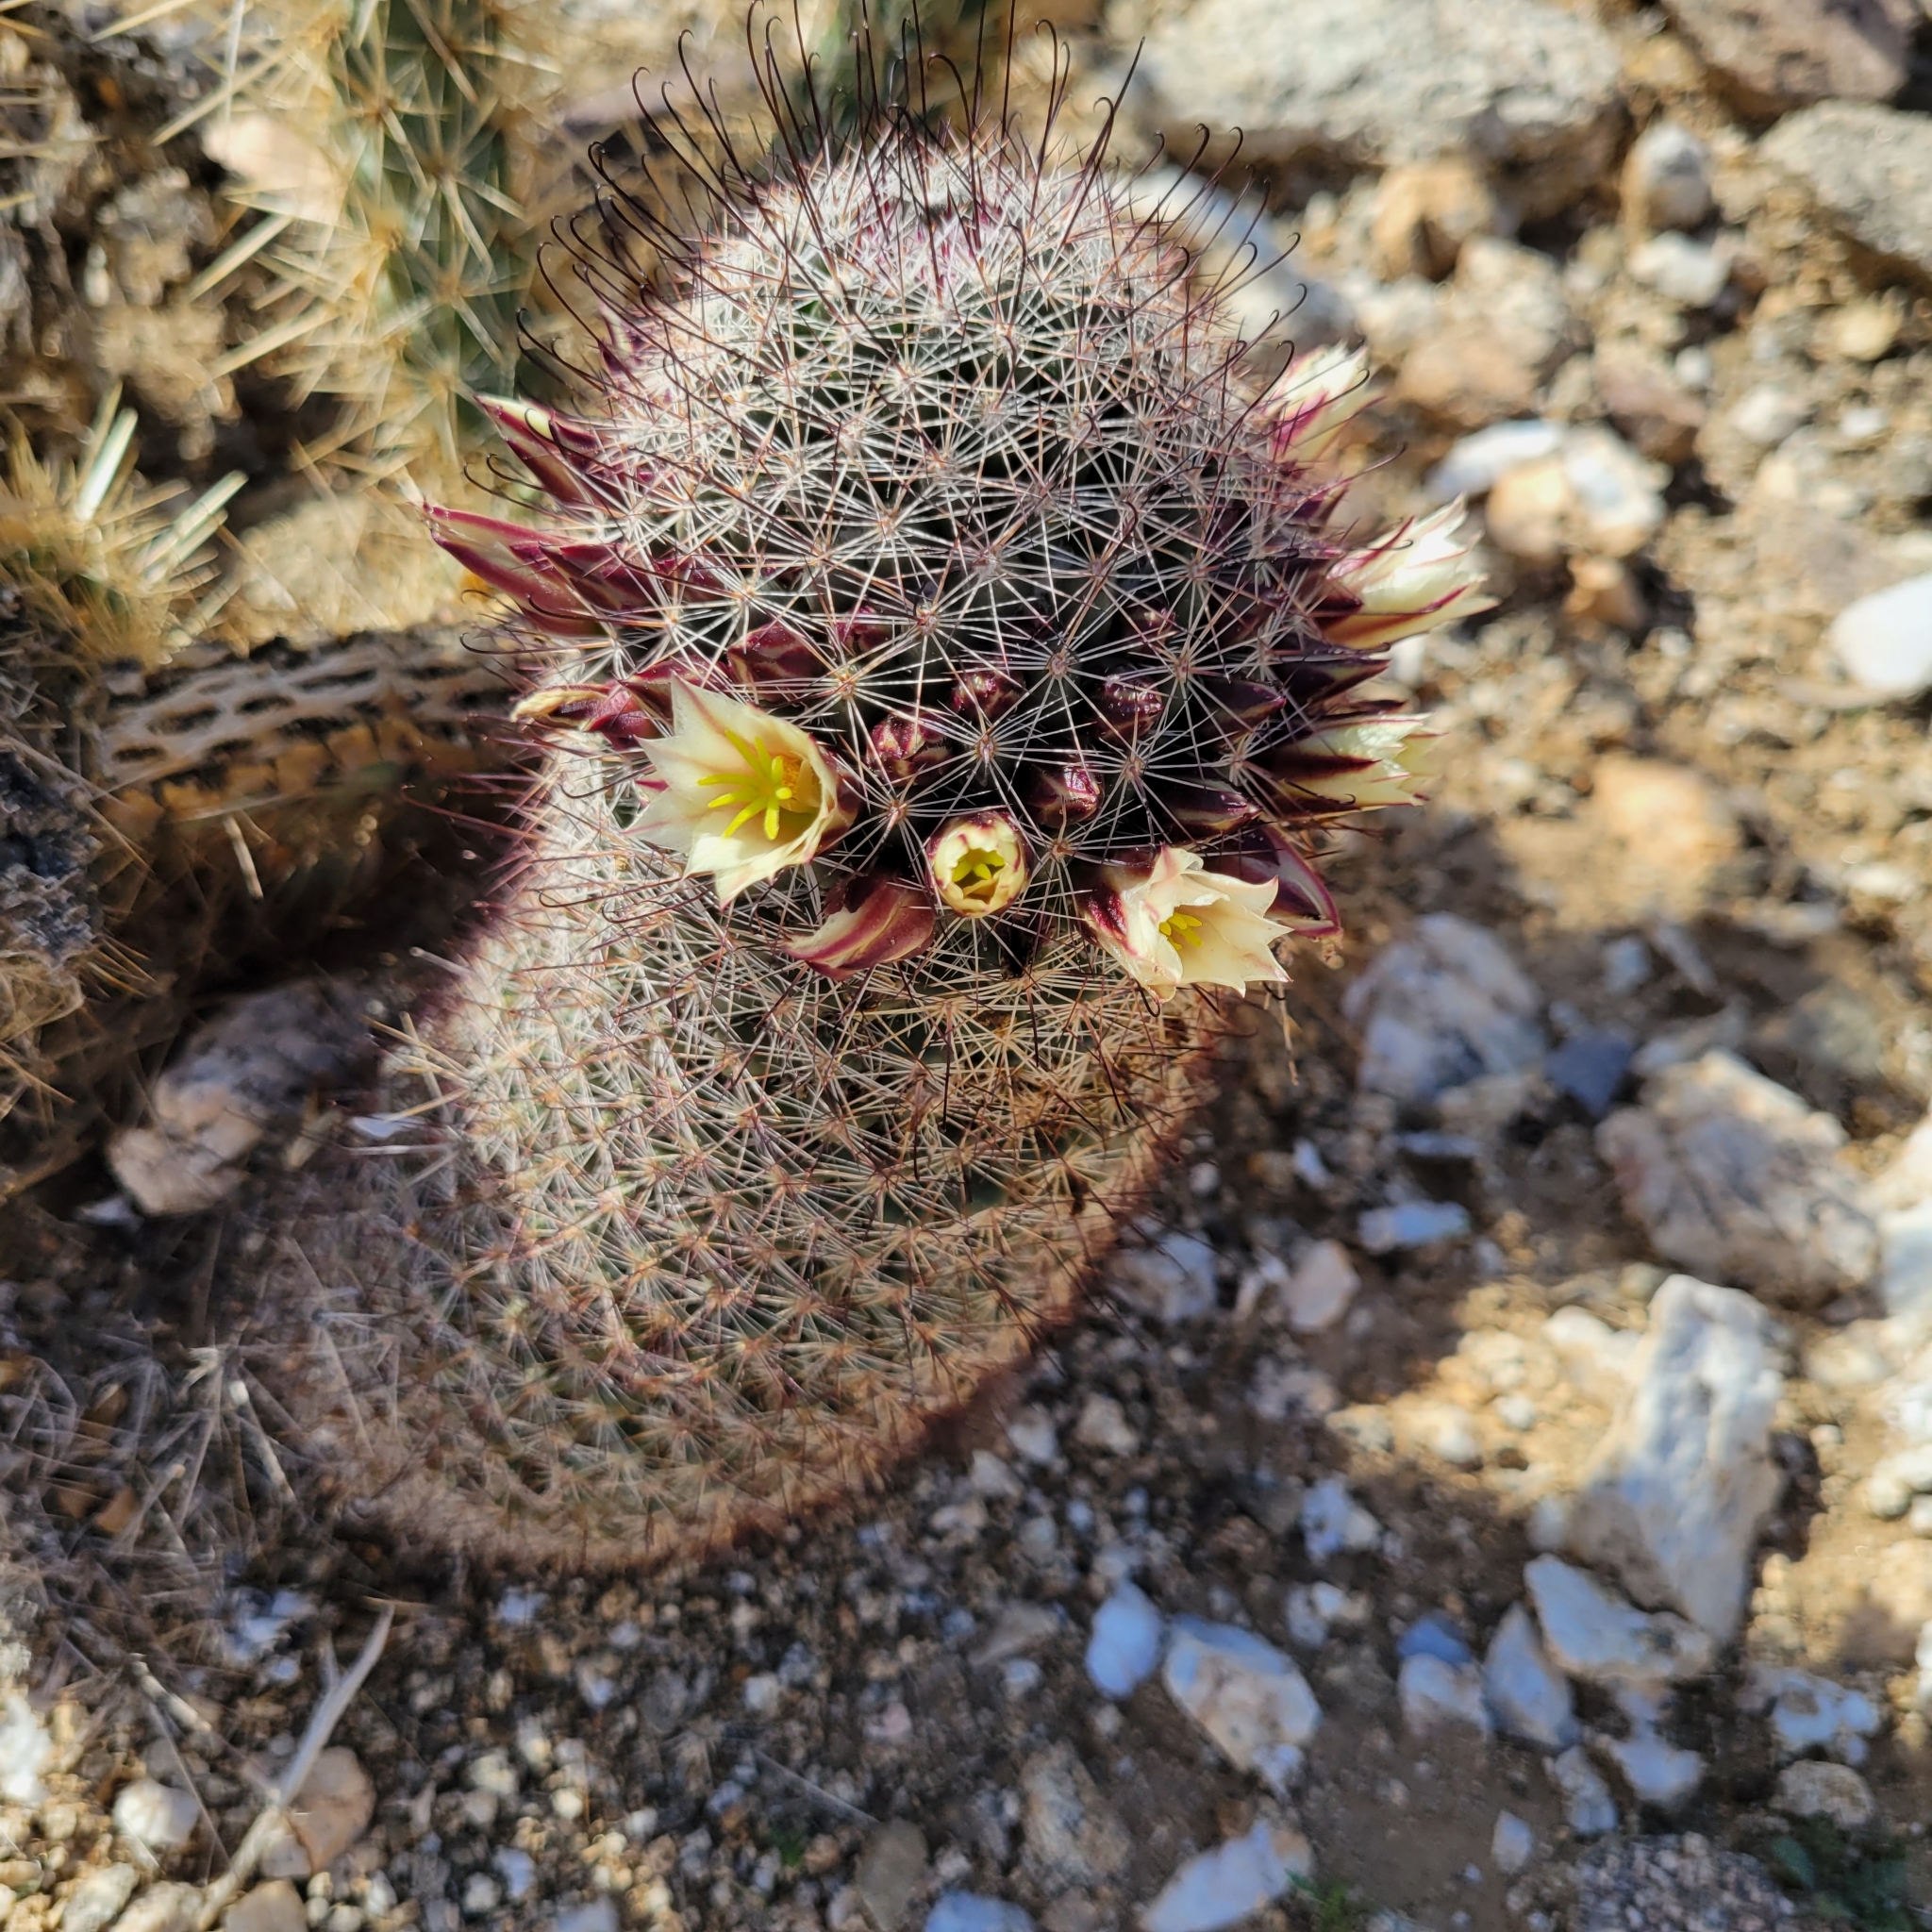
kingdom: Plantae
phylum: Tracheophyta
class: Magnoliopsida
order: Caryophyllales
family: Cactaceae
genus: Cochemiea
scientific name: Cochemiea dioica
